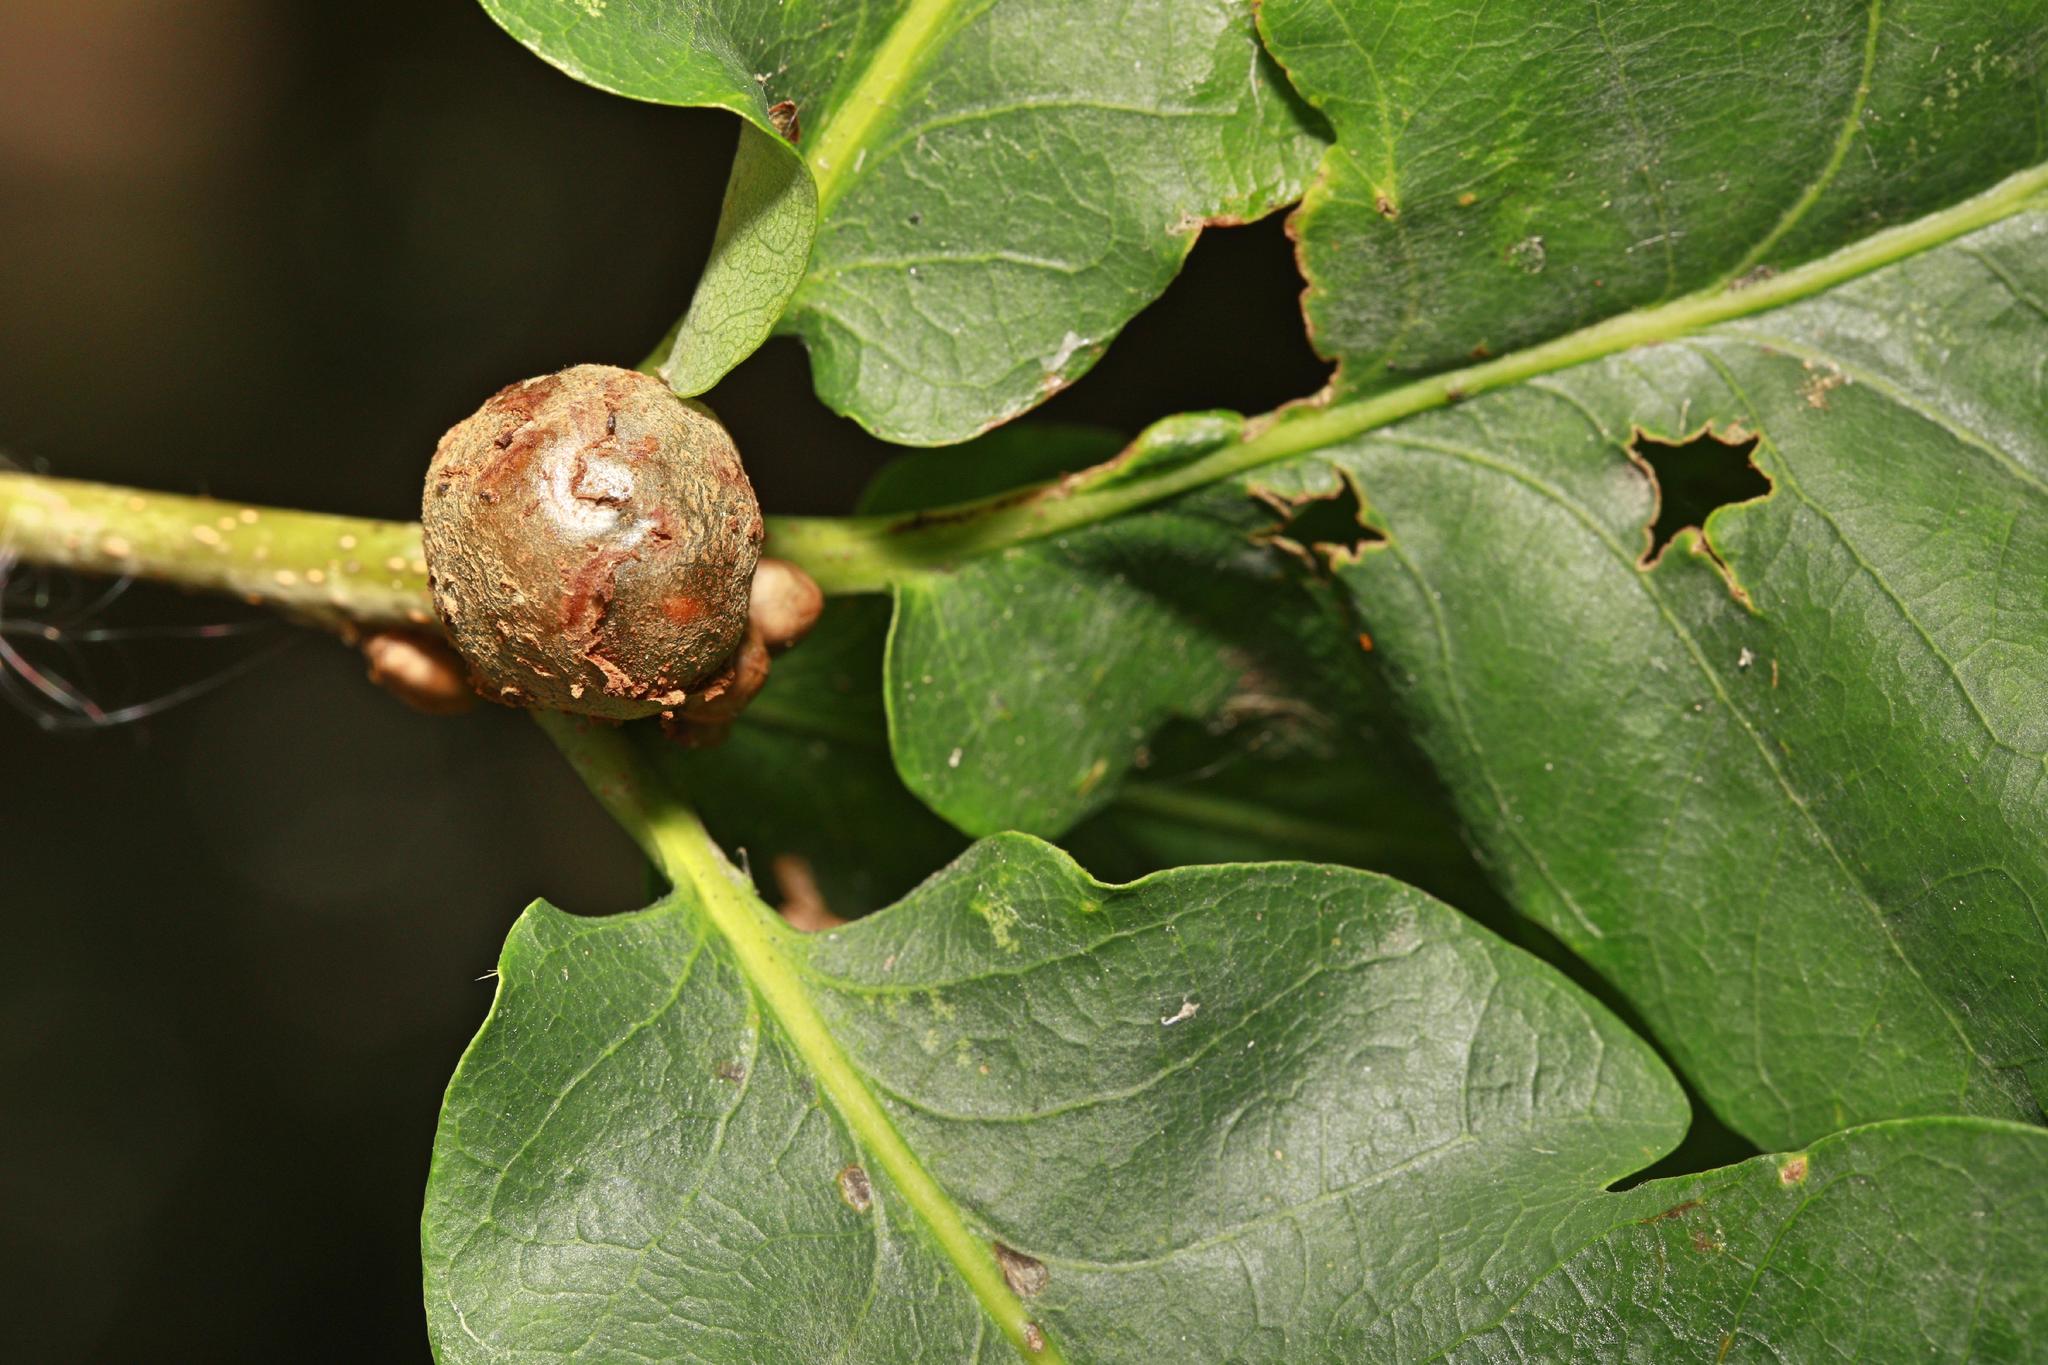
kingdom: Animalia
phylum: Arthropoda
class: Insecta
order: Hymenoptera
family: Cynipidae
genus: Andricus
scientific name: Andricus lignicolus
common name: Cola-nut gall
